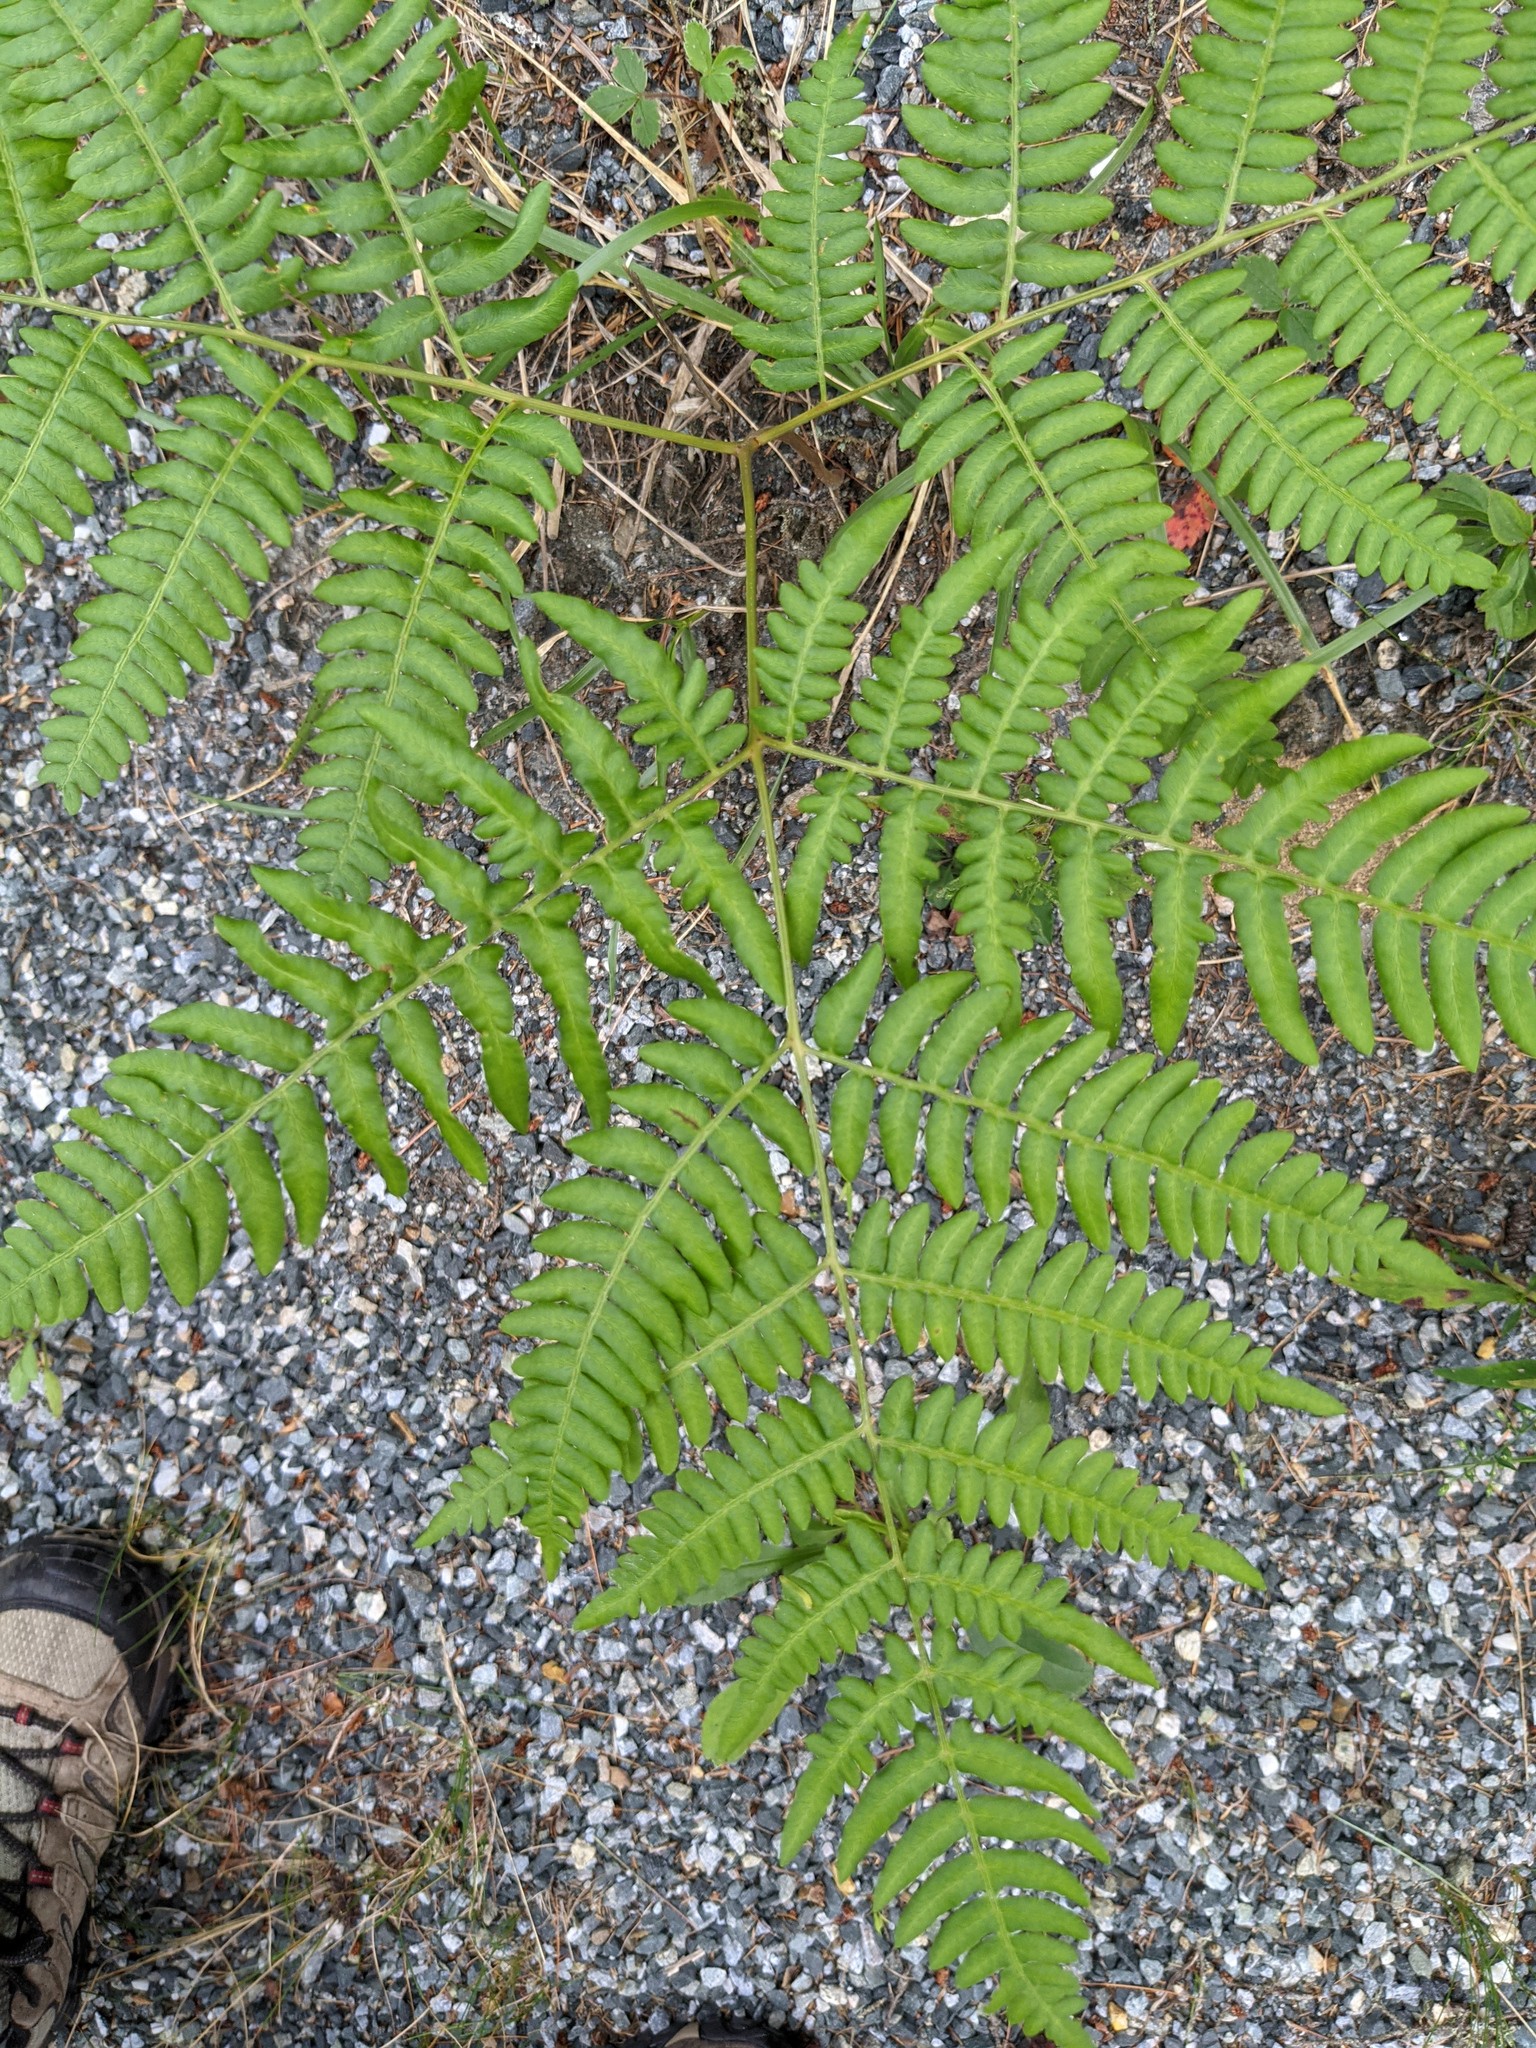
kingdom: Plantae
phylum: Tracheophyta
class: Polypodiopsida
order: Polypodiales
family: Dennstaedtiaceae
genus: Pteridium
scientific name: Pteridium aquilinum
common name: Bracken
